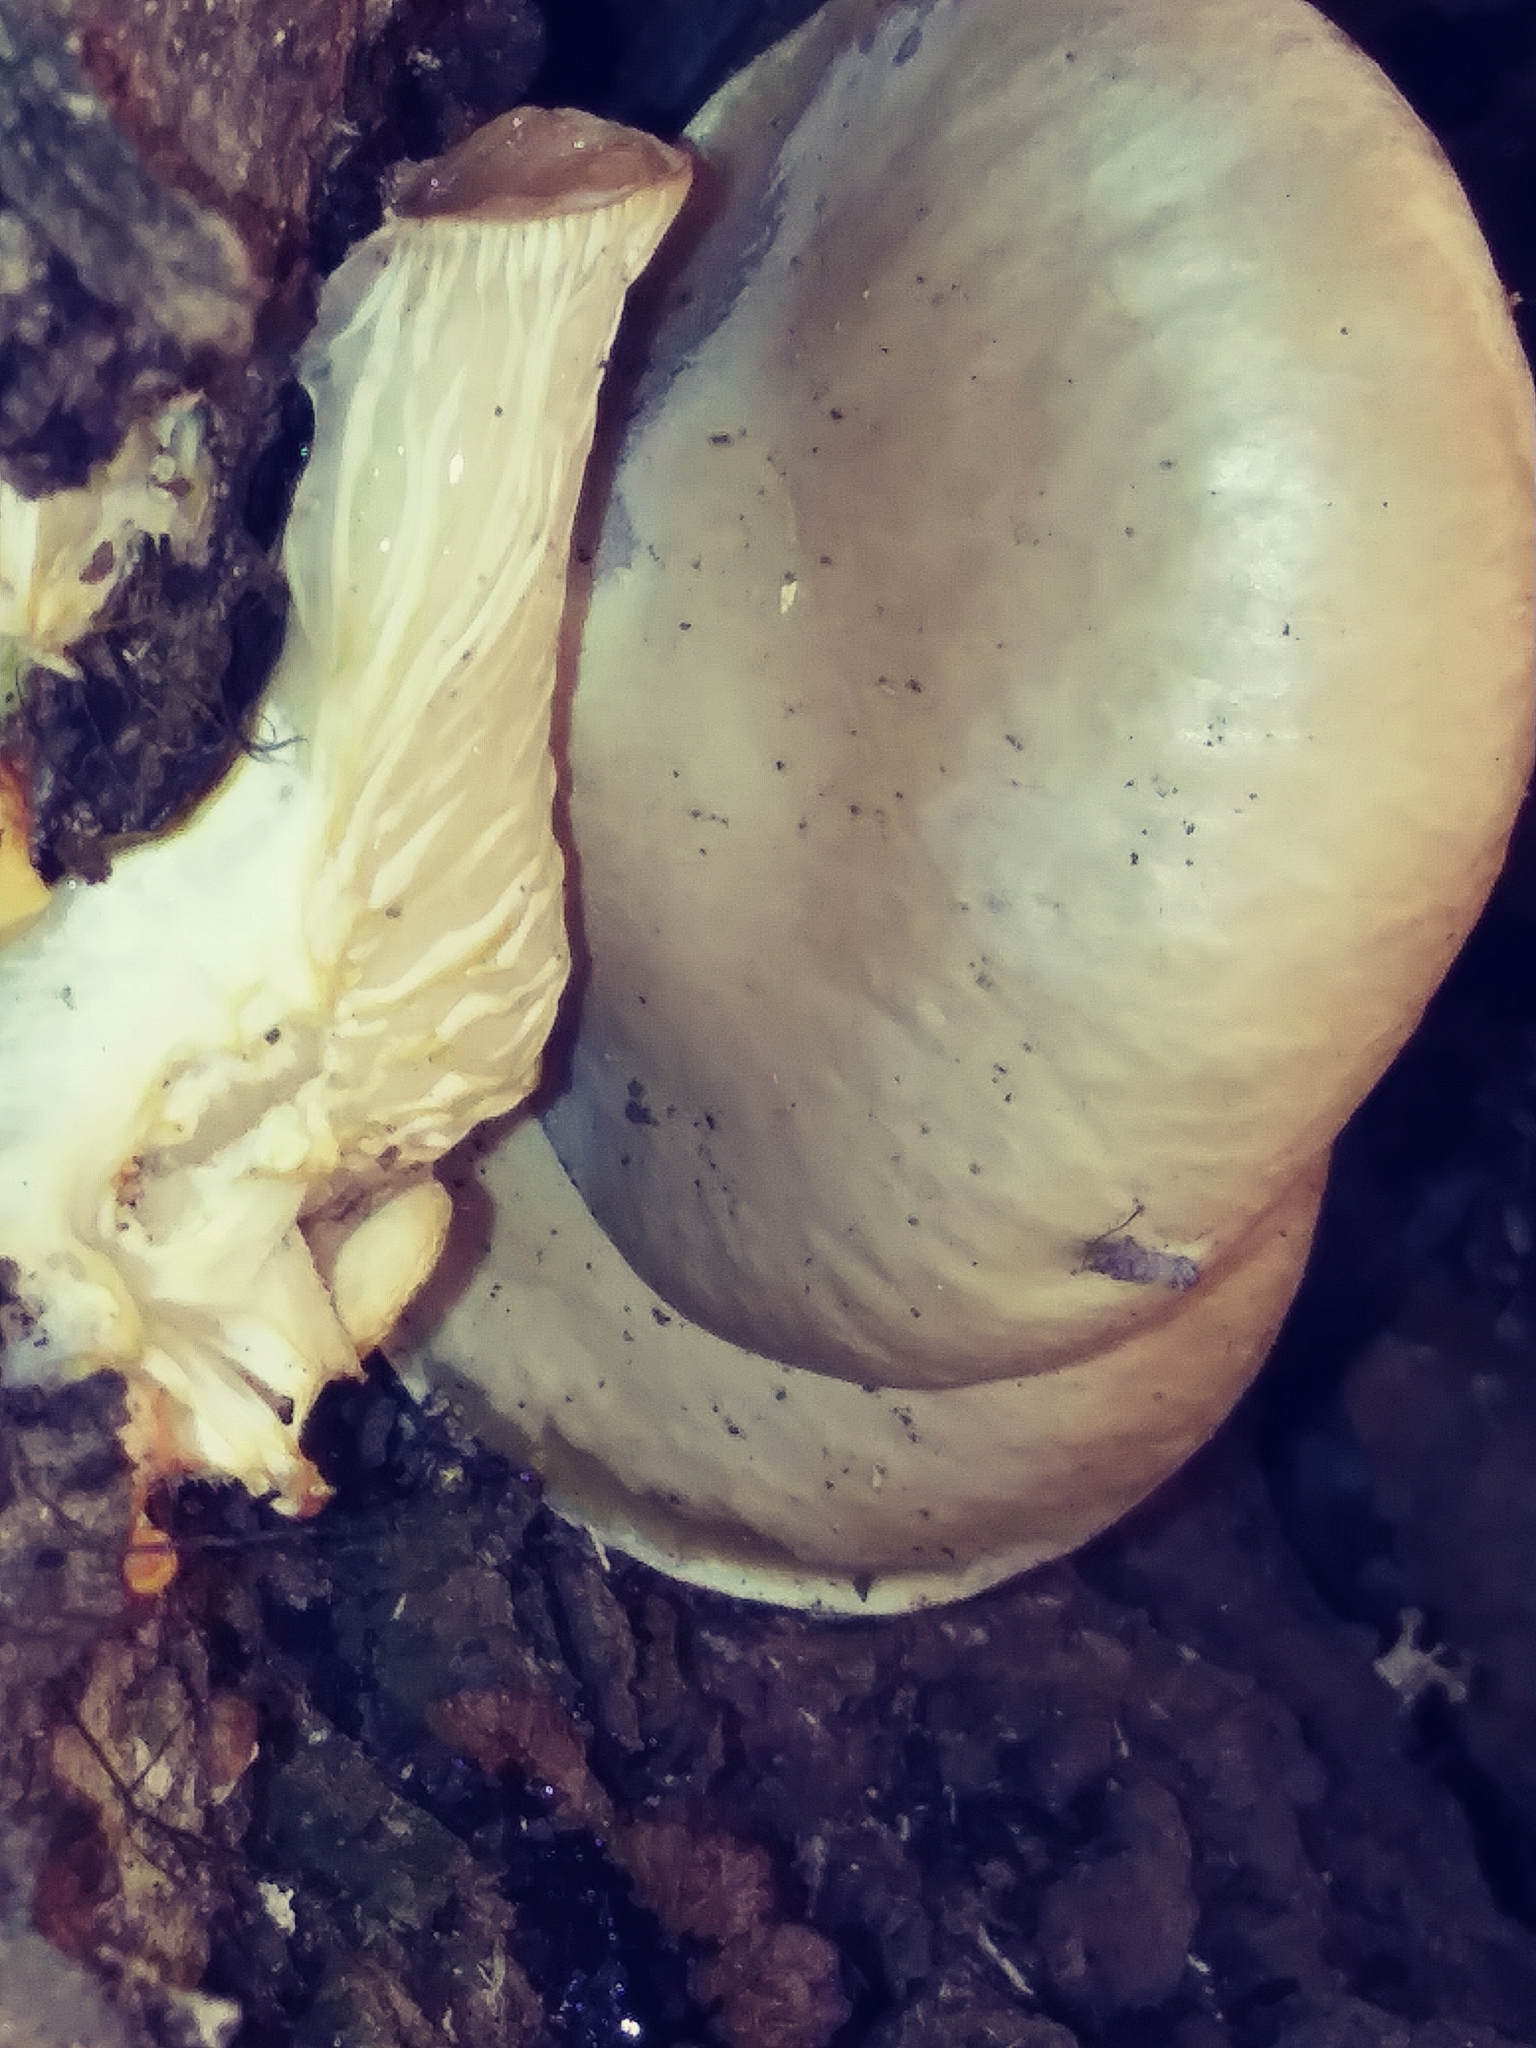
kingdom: Fungi
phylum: Basidiomycota
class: Agaricomycetes
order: Agaricales
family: Pleurotaceae
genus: Pleurotus
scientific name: Pleurotus ostreatus
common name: Oyster mushroom
